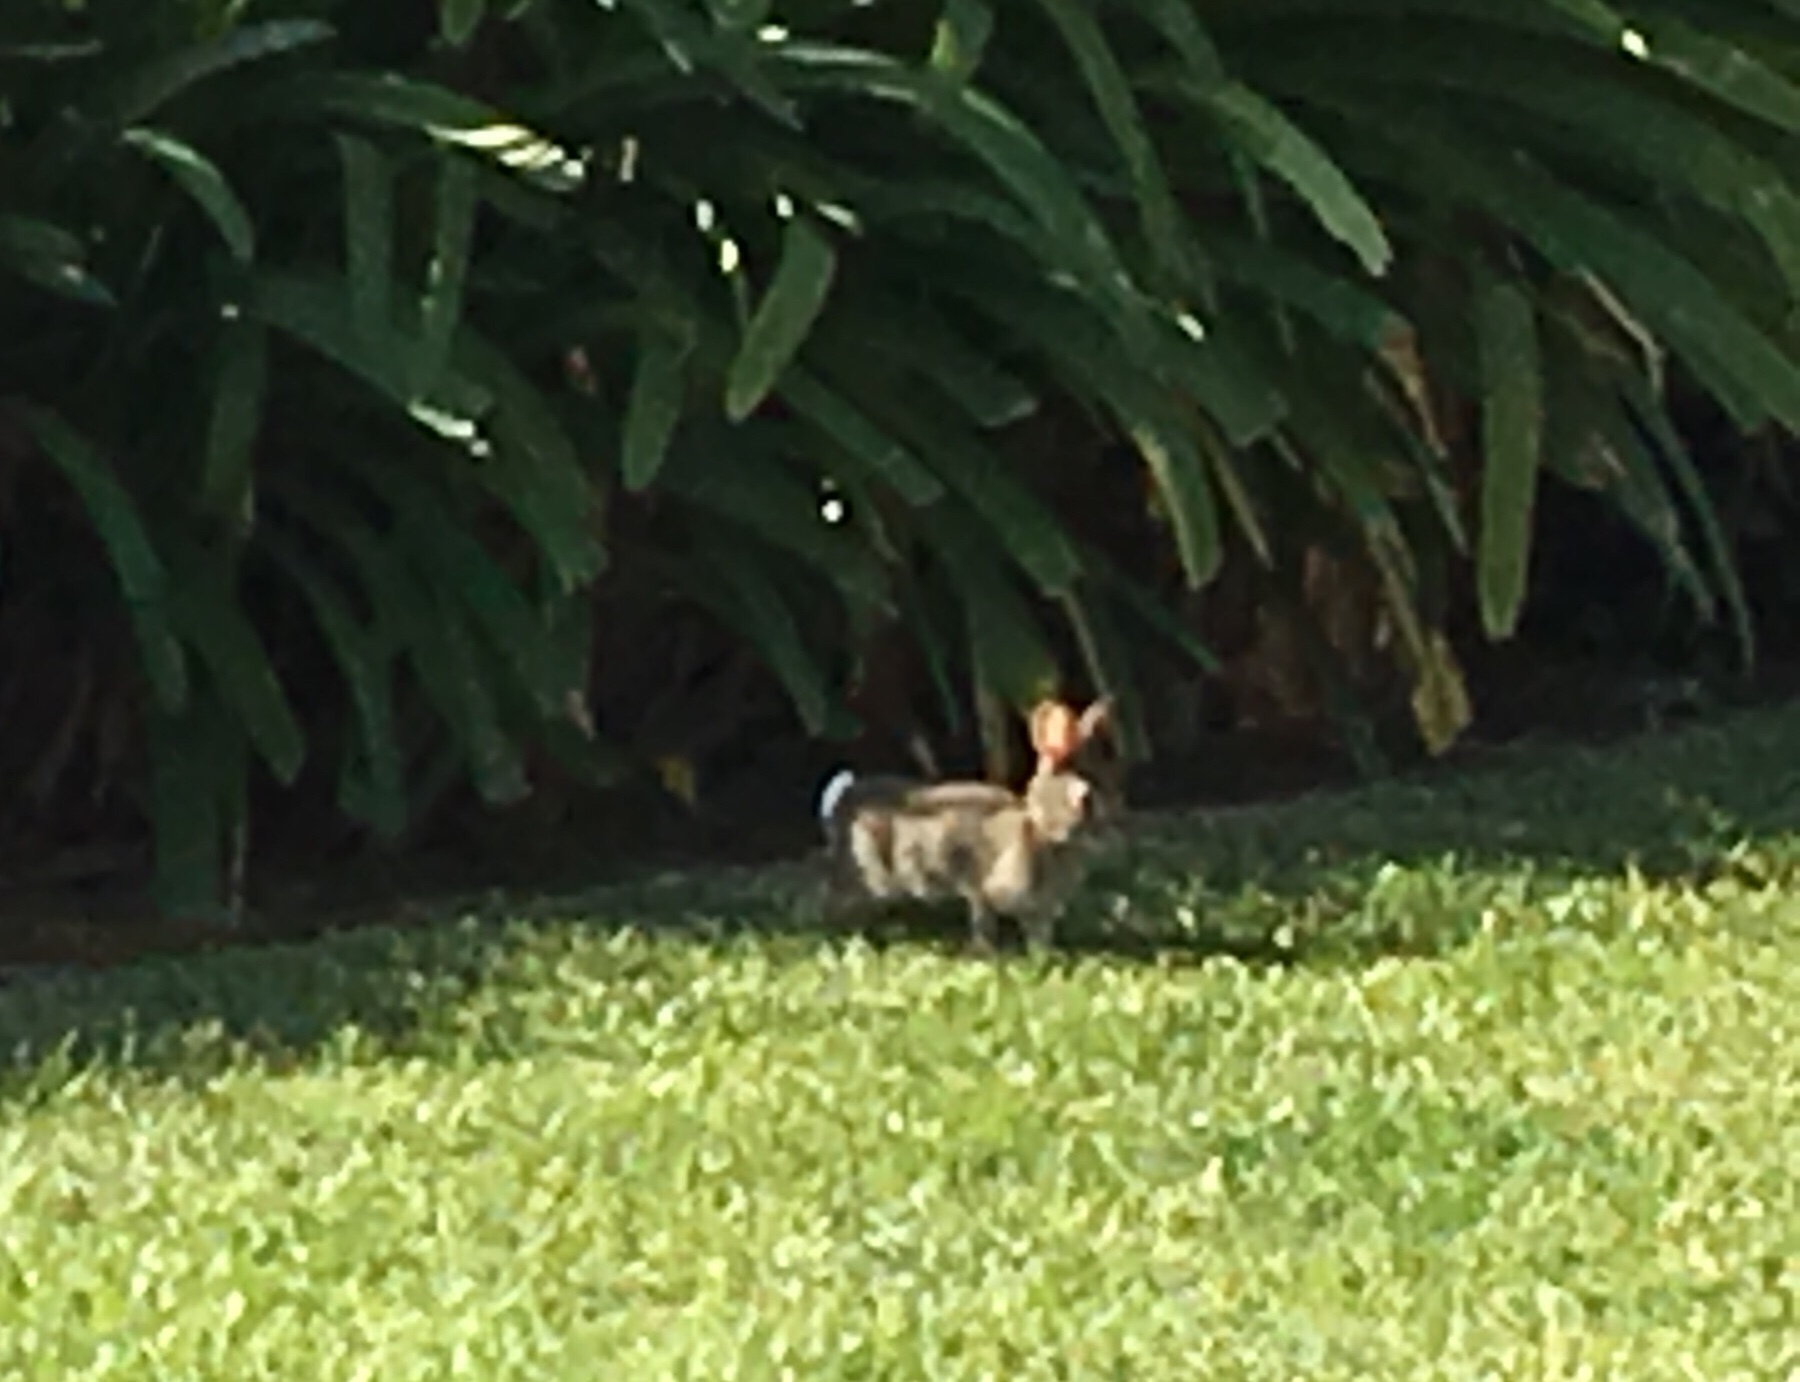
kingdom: Animalia
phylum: Chordata
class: Mammalia
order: Lagomorpha
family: Leporidae
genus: Sylvilagus
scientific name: Sylvilagus audubonii
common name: Desert cottontail
